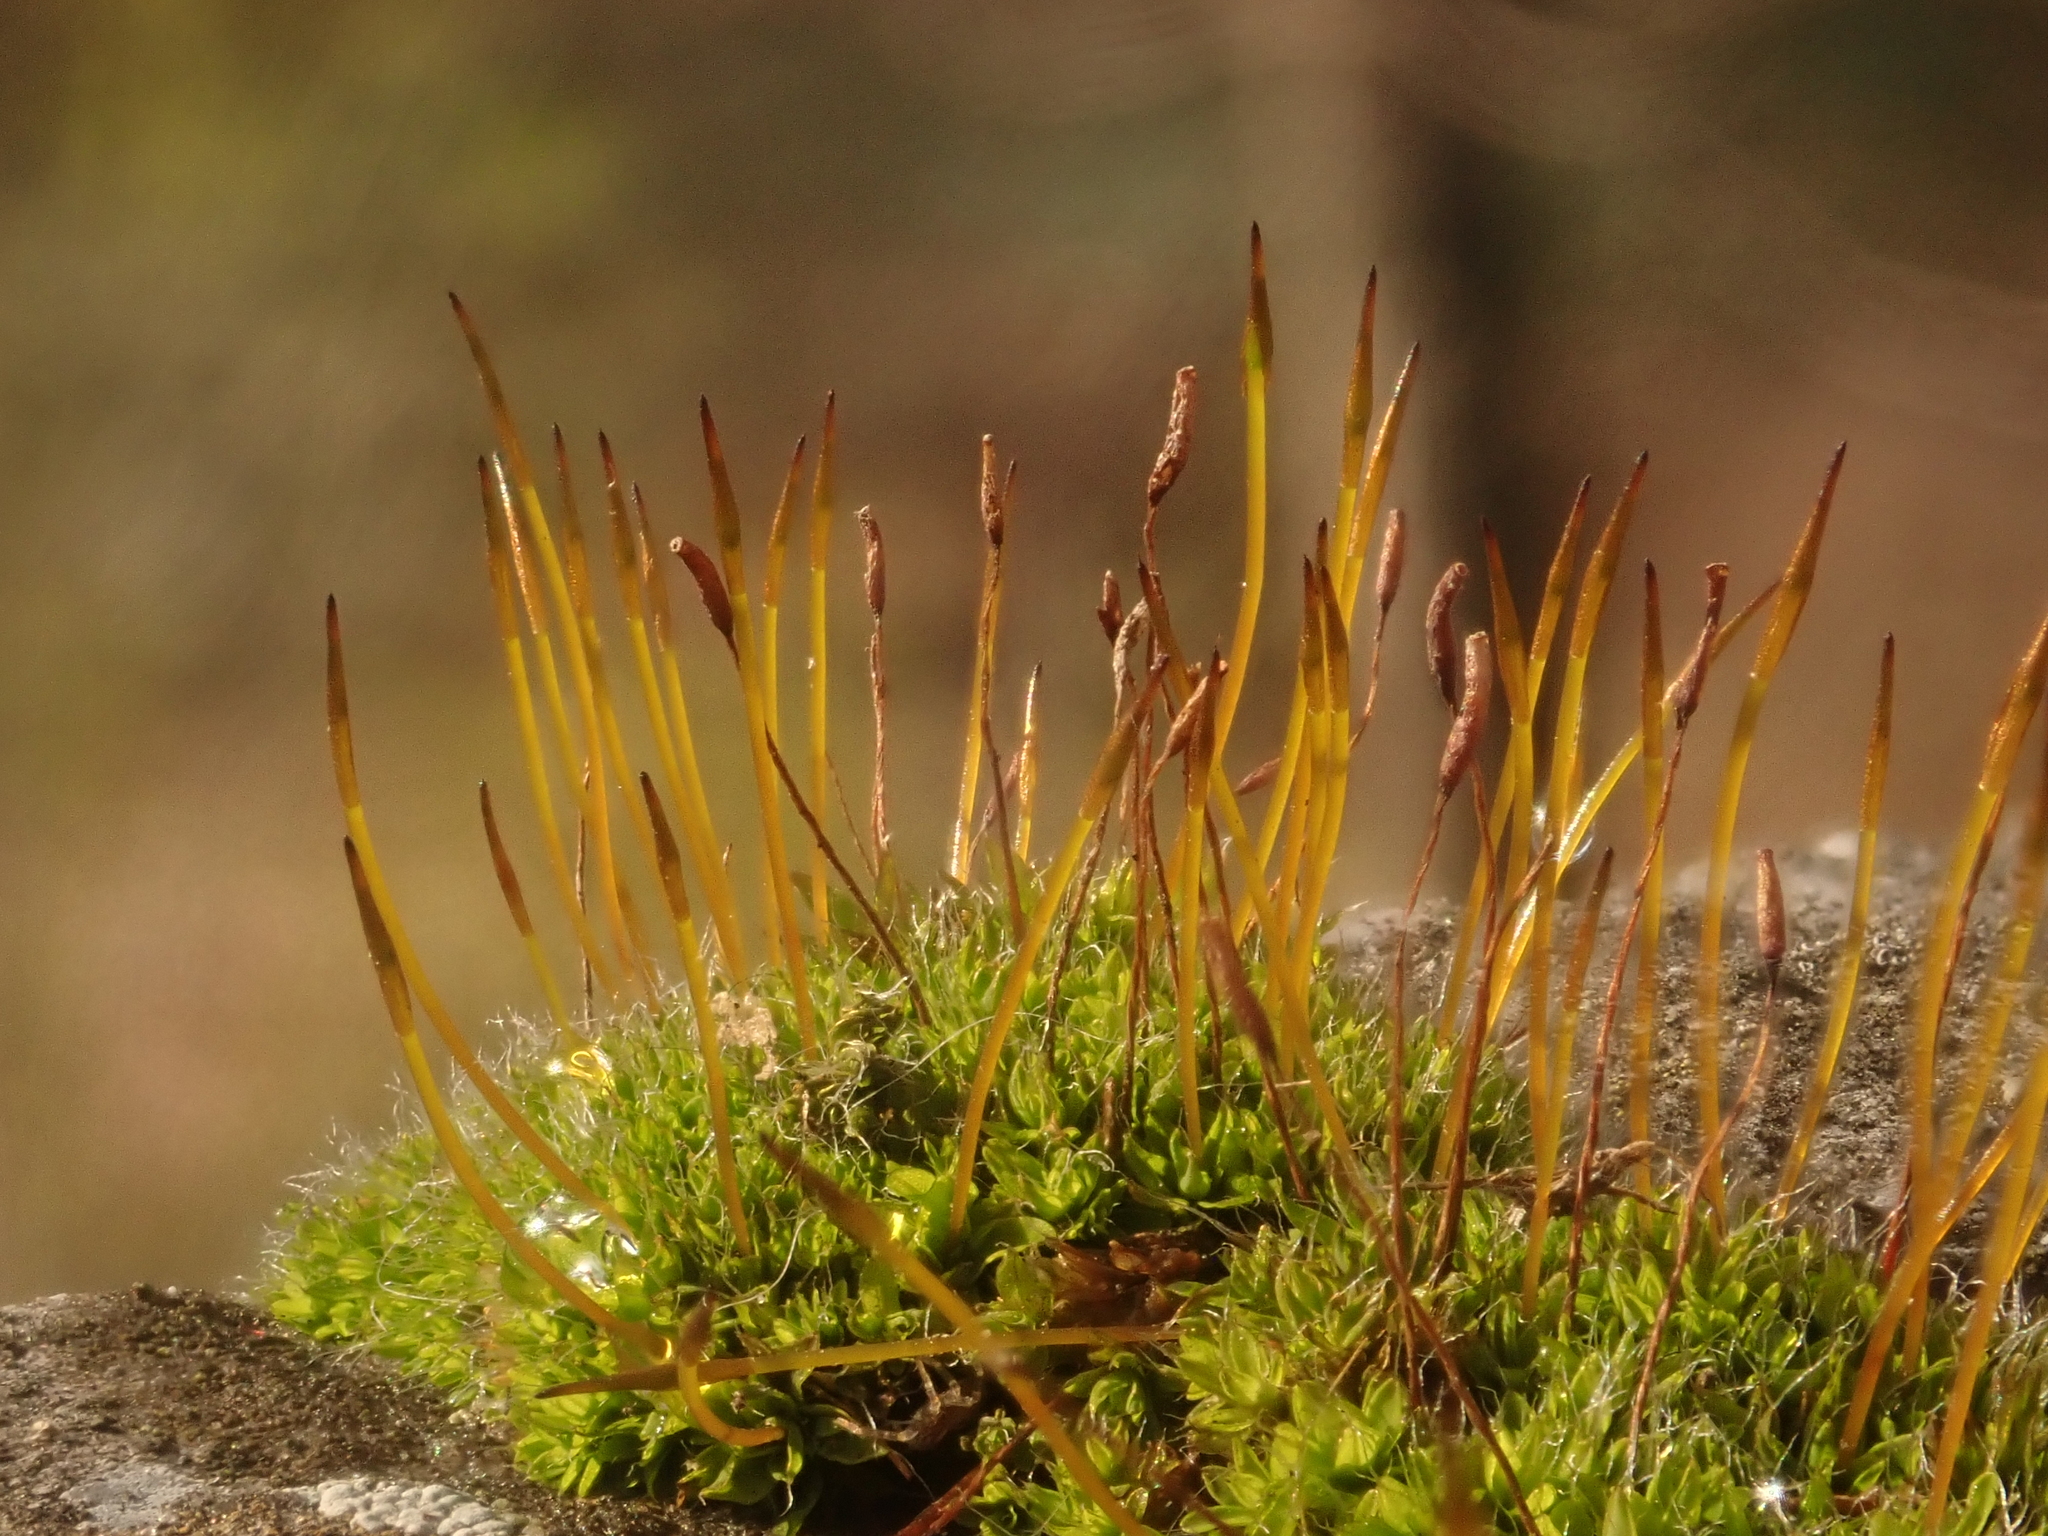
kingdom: Plantae
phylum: Bryophyta
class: Bryopsida
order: Pottiales
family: Pottiaceae
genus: Tortula
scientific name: Tortula muralis
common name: Wall screw-moss
